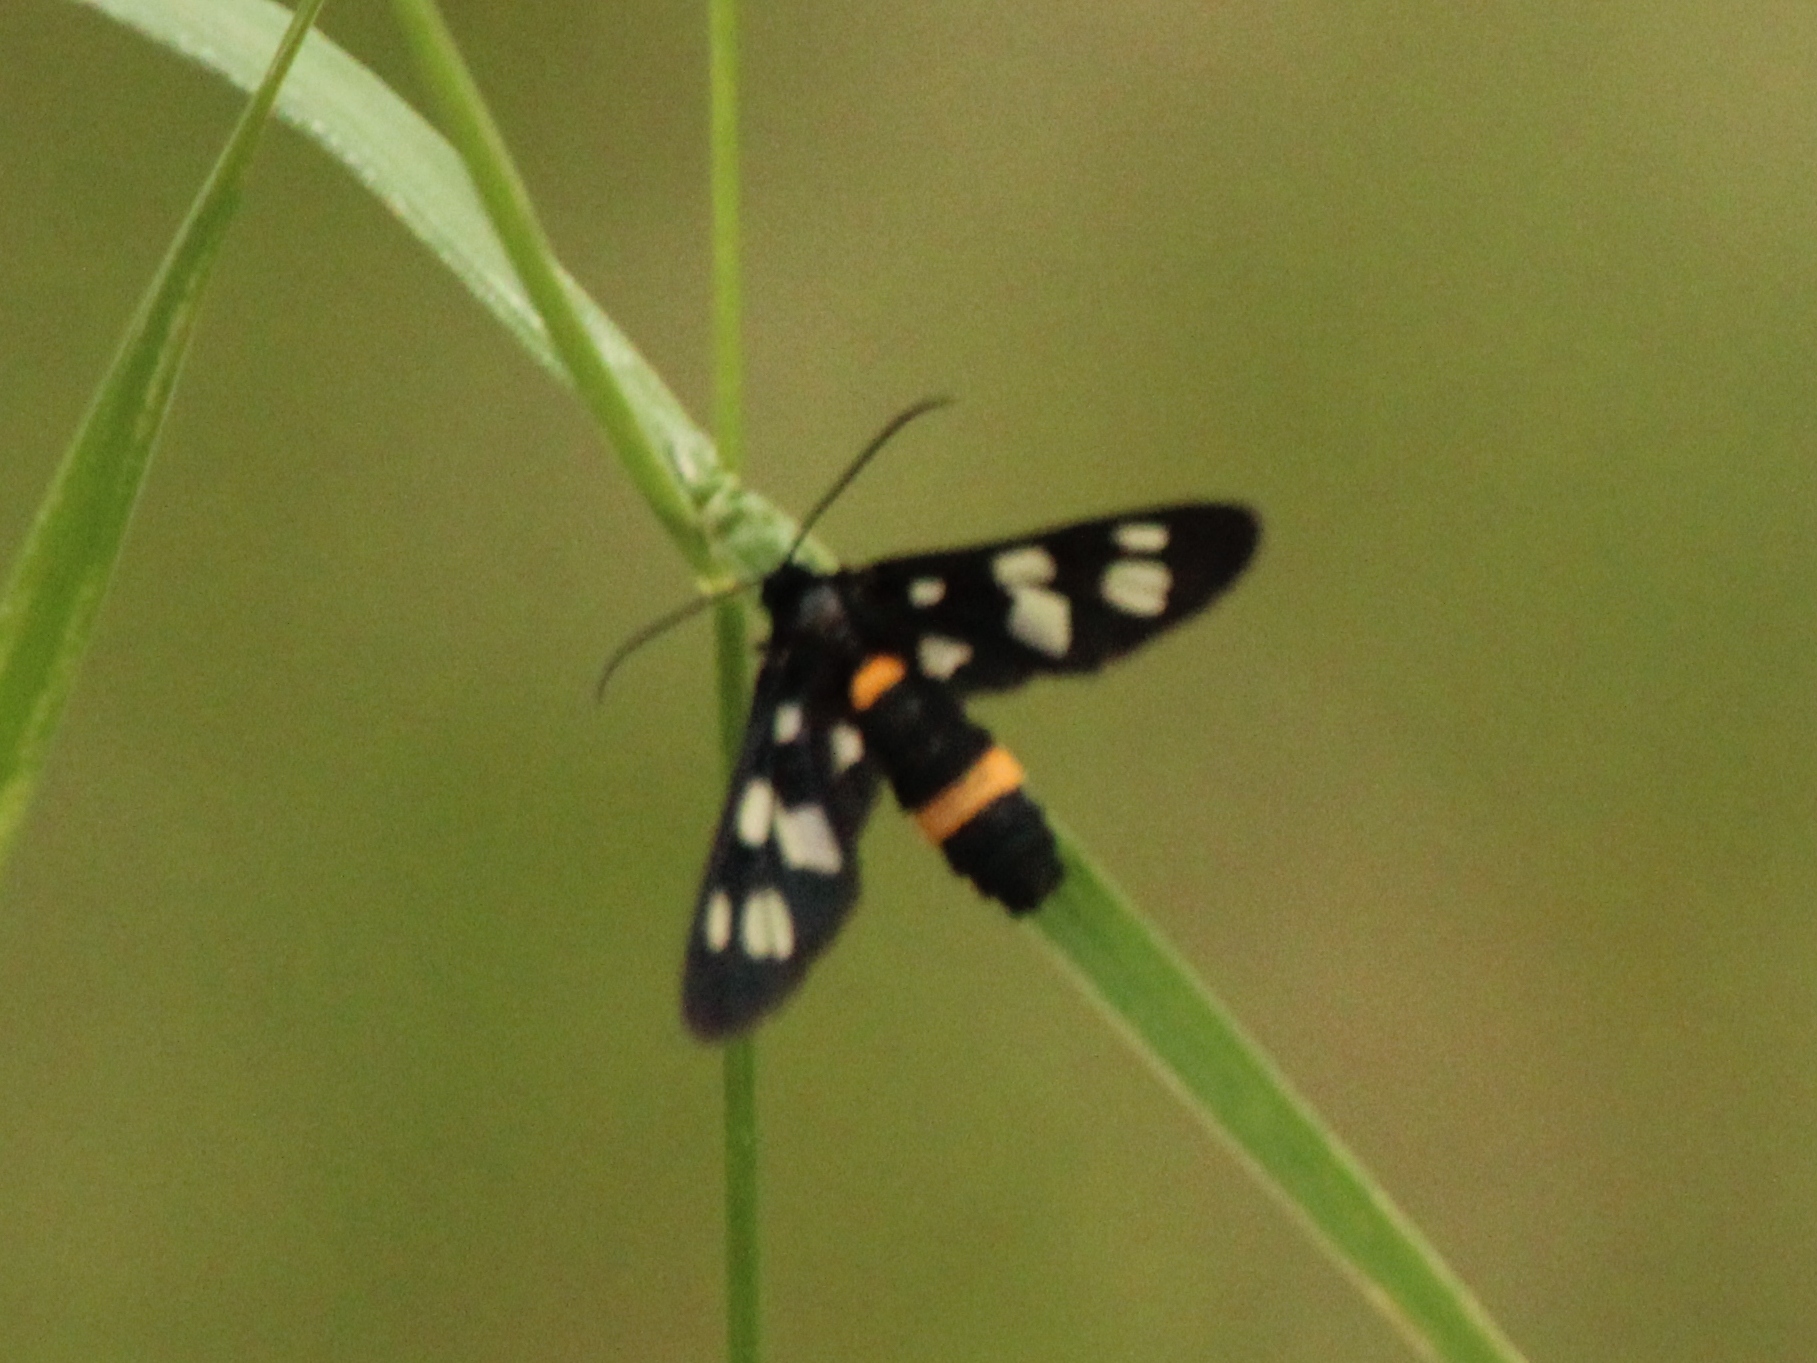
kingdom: Animalia
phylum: Arthropoda
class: Insecta
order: Lepidoptera
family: Erebidae
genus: Amata
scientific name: Amata caspia
